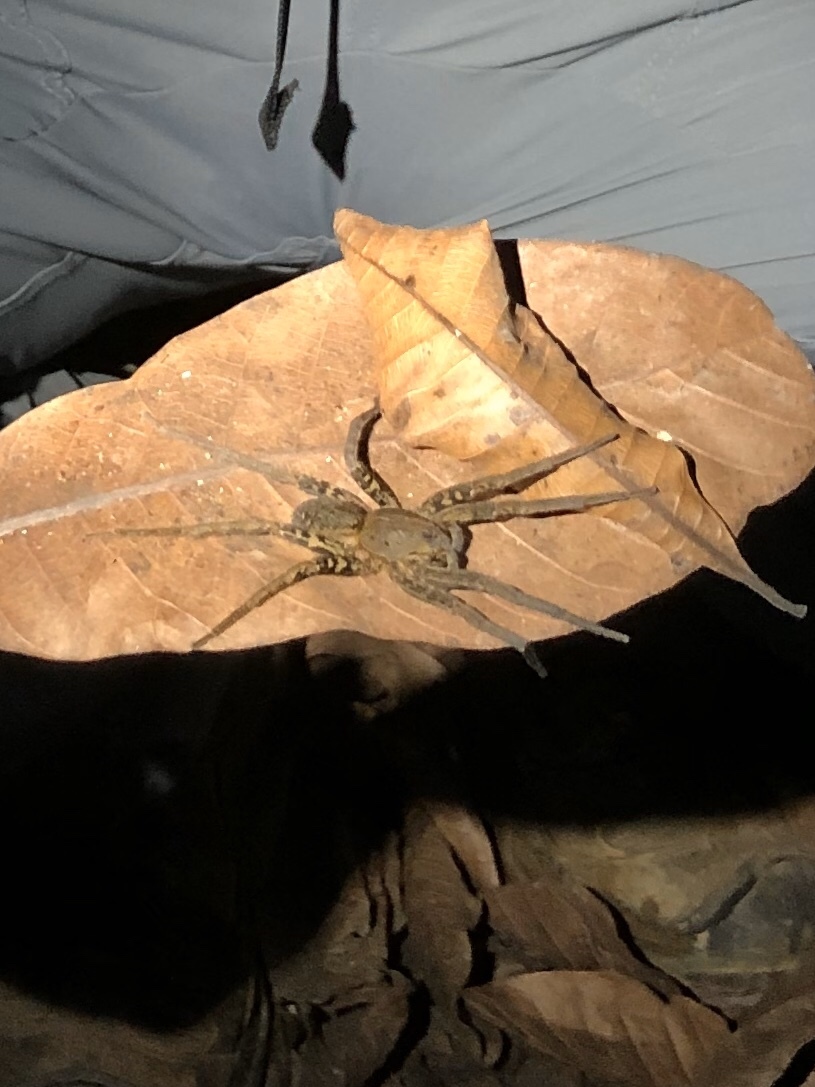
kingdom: Animalia
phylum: Arthropoda
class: Arachnida
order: Araneae
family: Ctenidae
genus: Ancylometes
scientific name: Ancylometes bogotensis
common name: Wandering spiders
